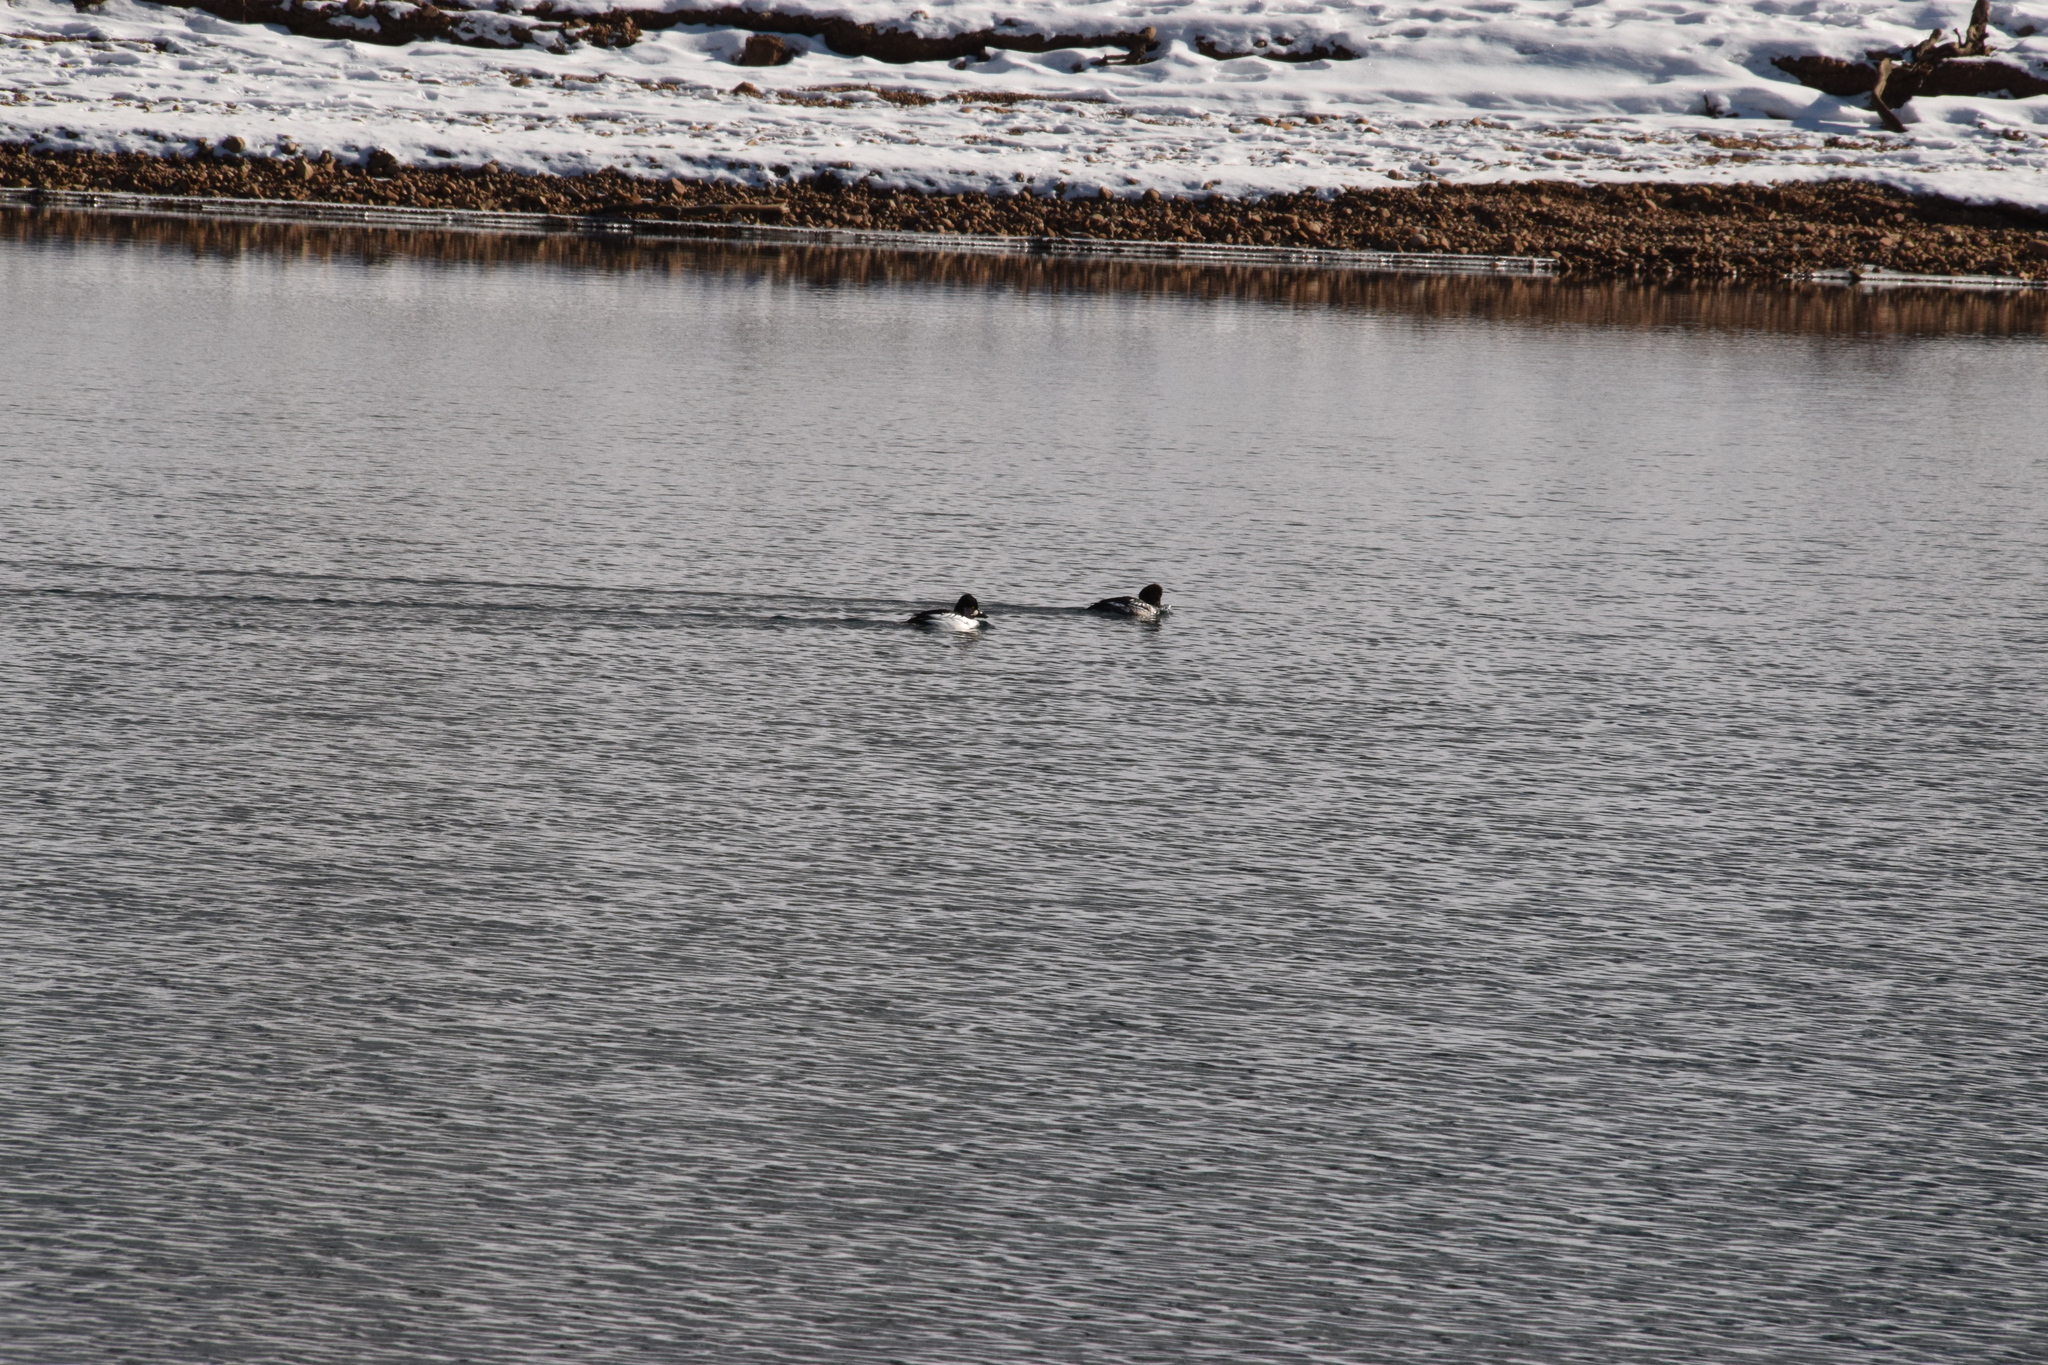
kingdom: Animalia
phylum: Chordata
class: Aves
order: Anseriformes
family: Anatidae
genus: Bucephala
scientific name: Bucephala clangula
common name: Common goldeneye
